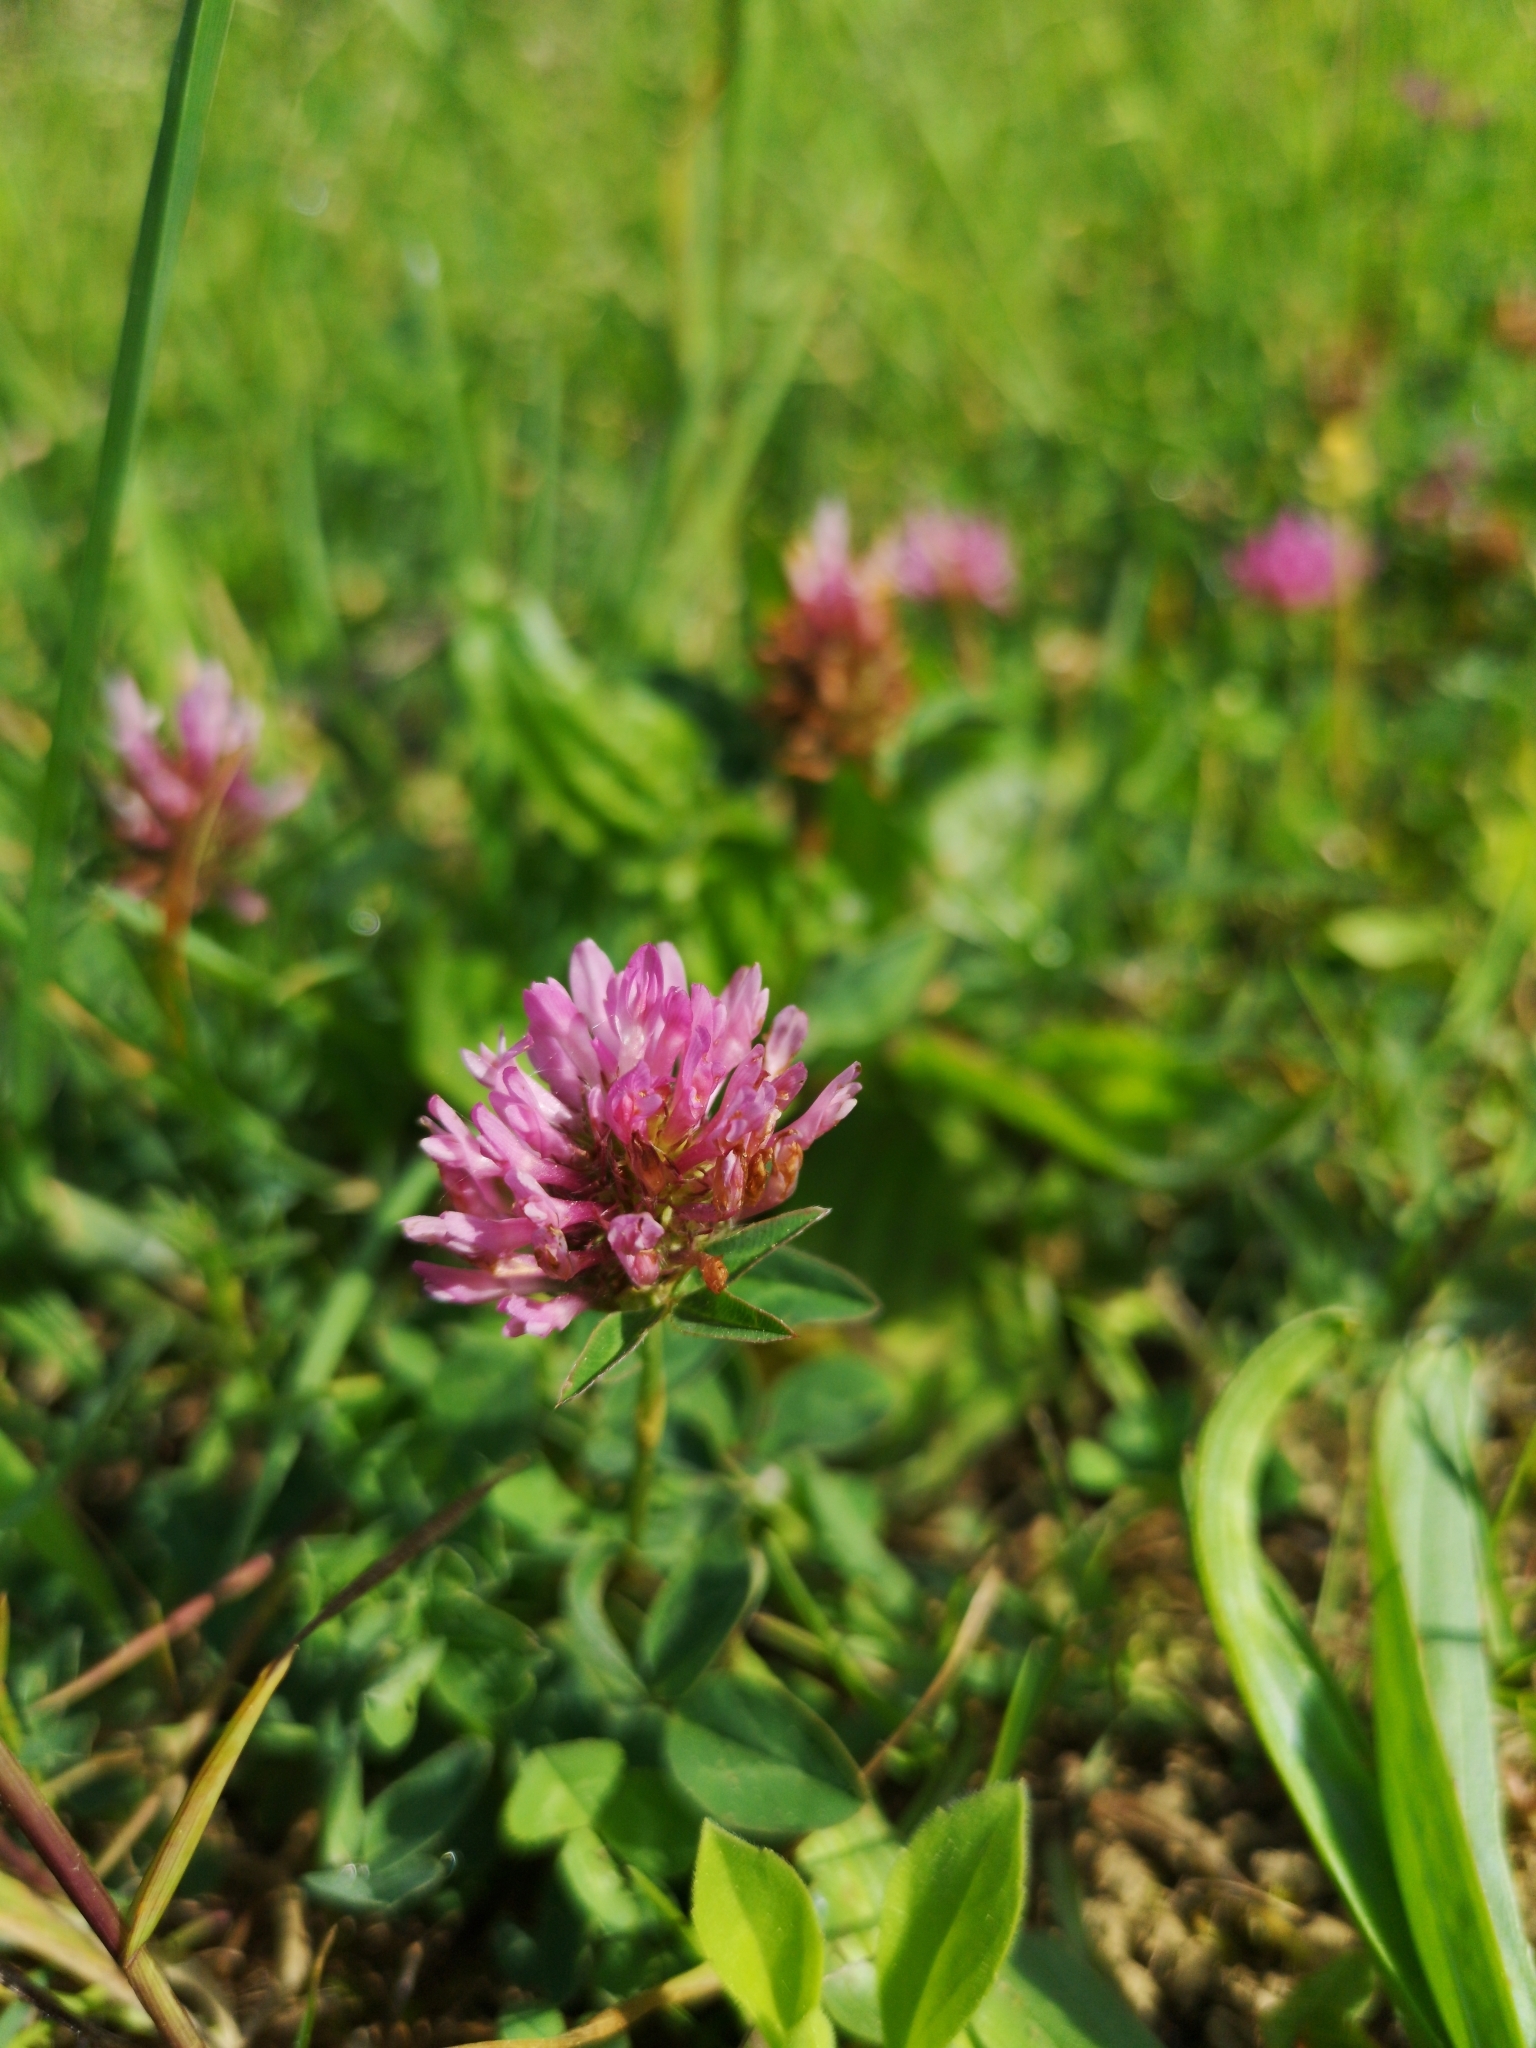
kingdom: Plantae
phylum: Tracheophyta
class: Magnoliopsida
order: Fabales
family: Fabaceae
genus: Trifolium
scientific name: Trifolium pratense
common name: Red clover
